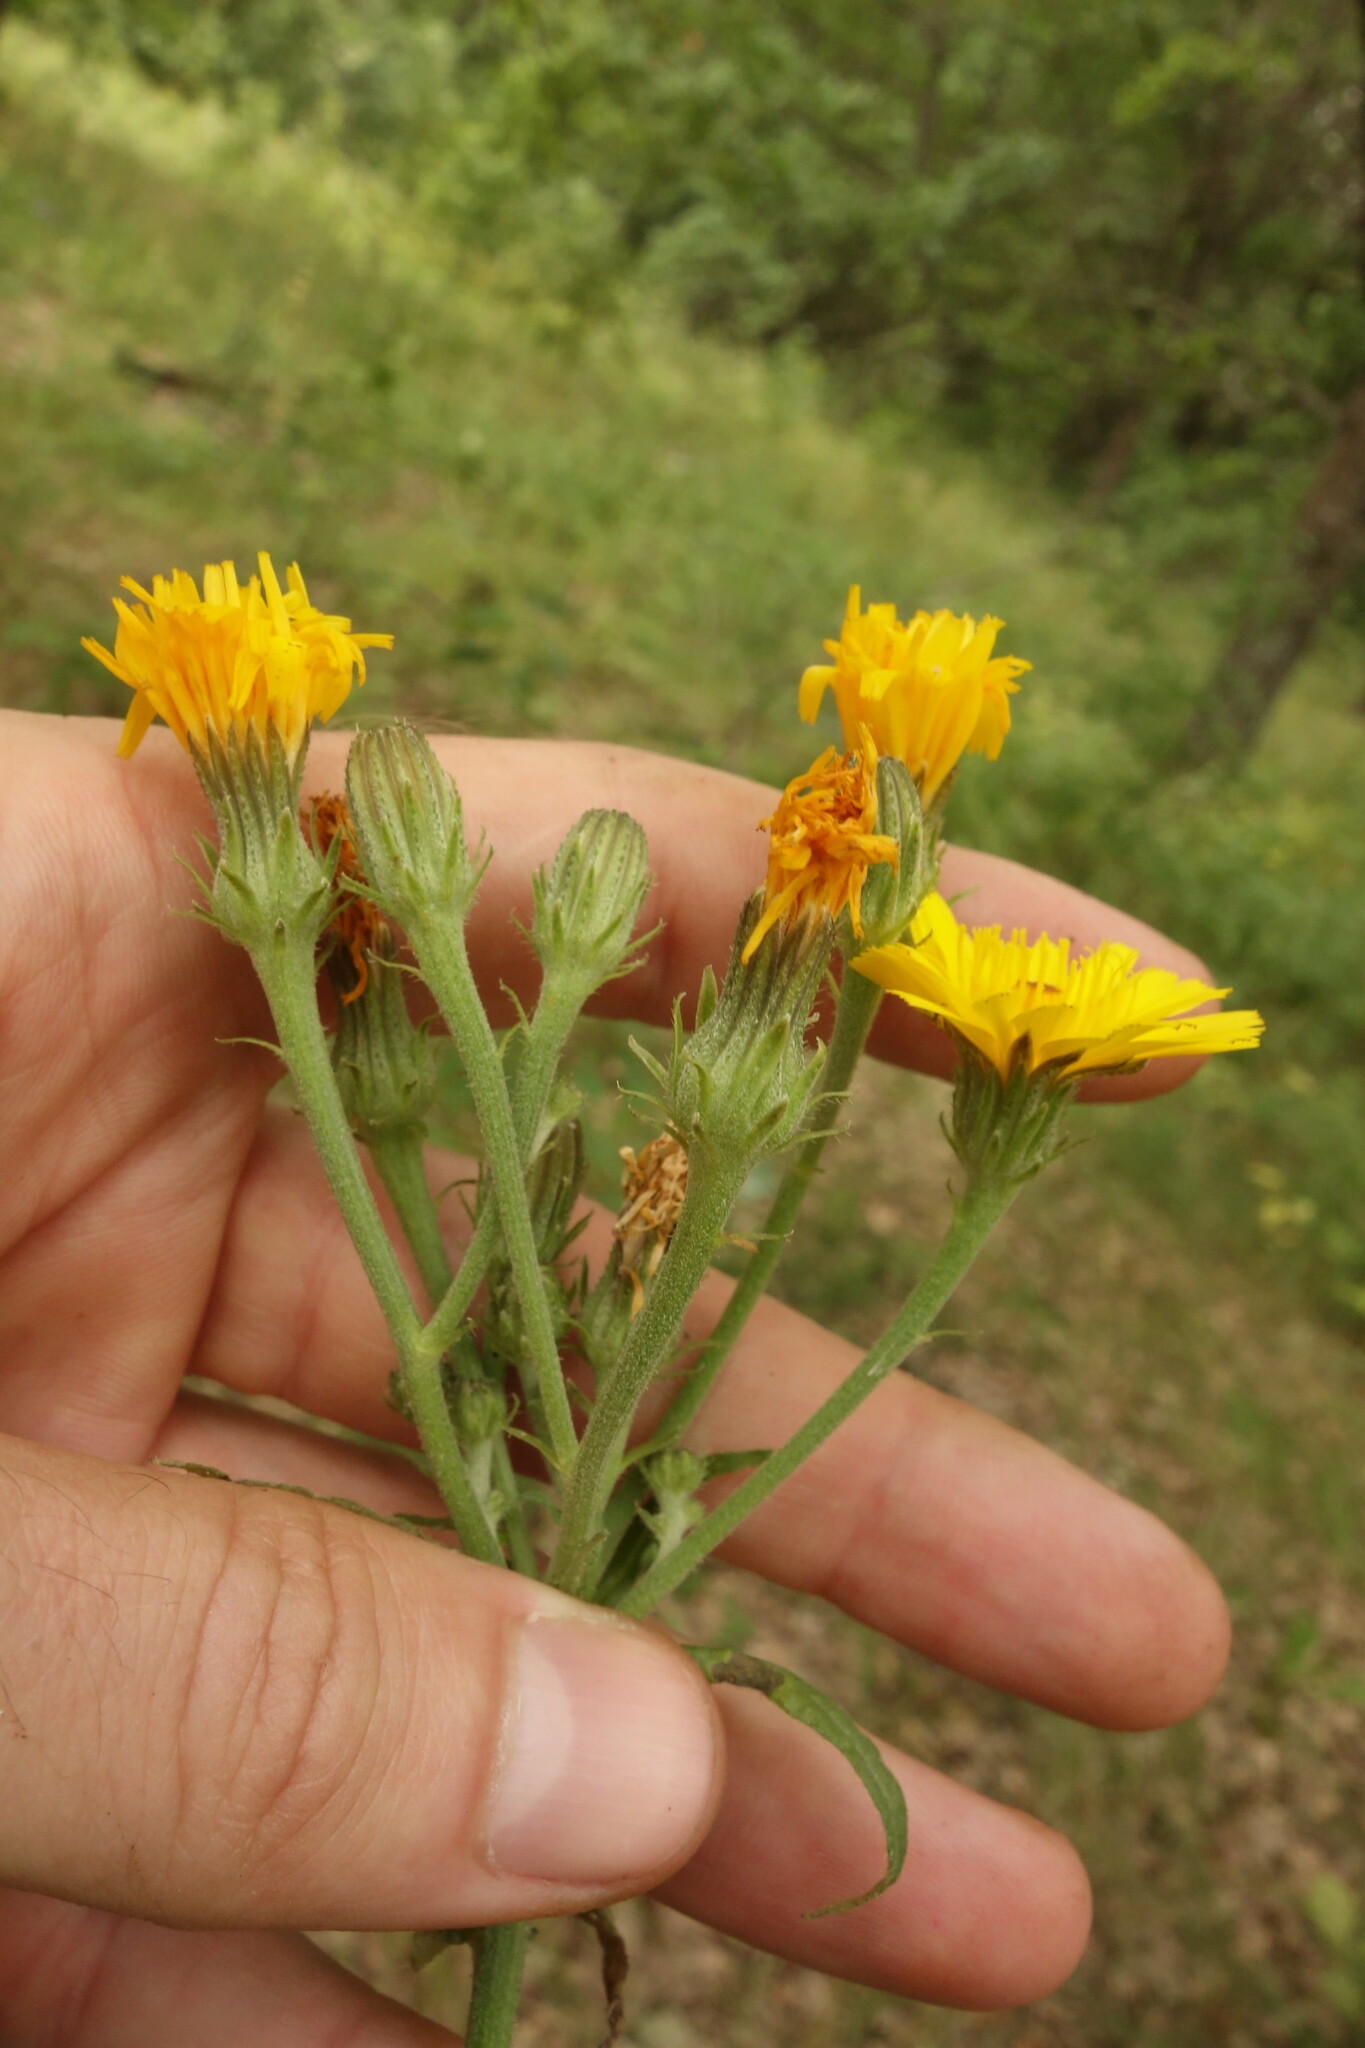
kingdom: Plantae
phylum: Tracheophyta
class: Magnoliopsida
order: Asterales
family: Asteraceae
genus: Picris
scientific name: Picris hieracioides
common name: Hawkweed oxtongue
